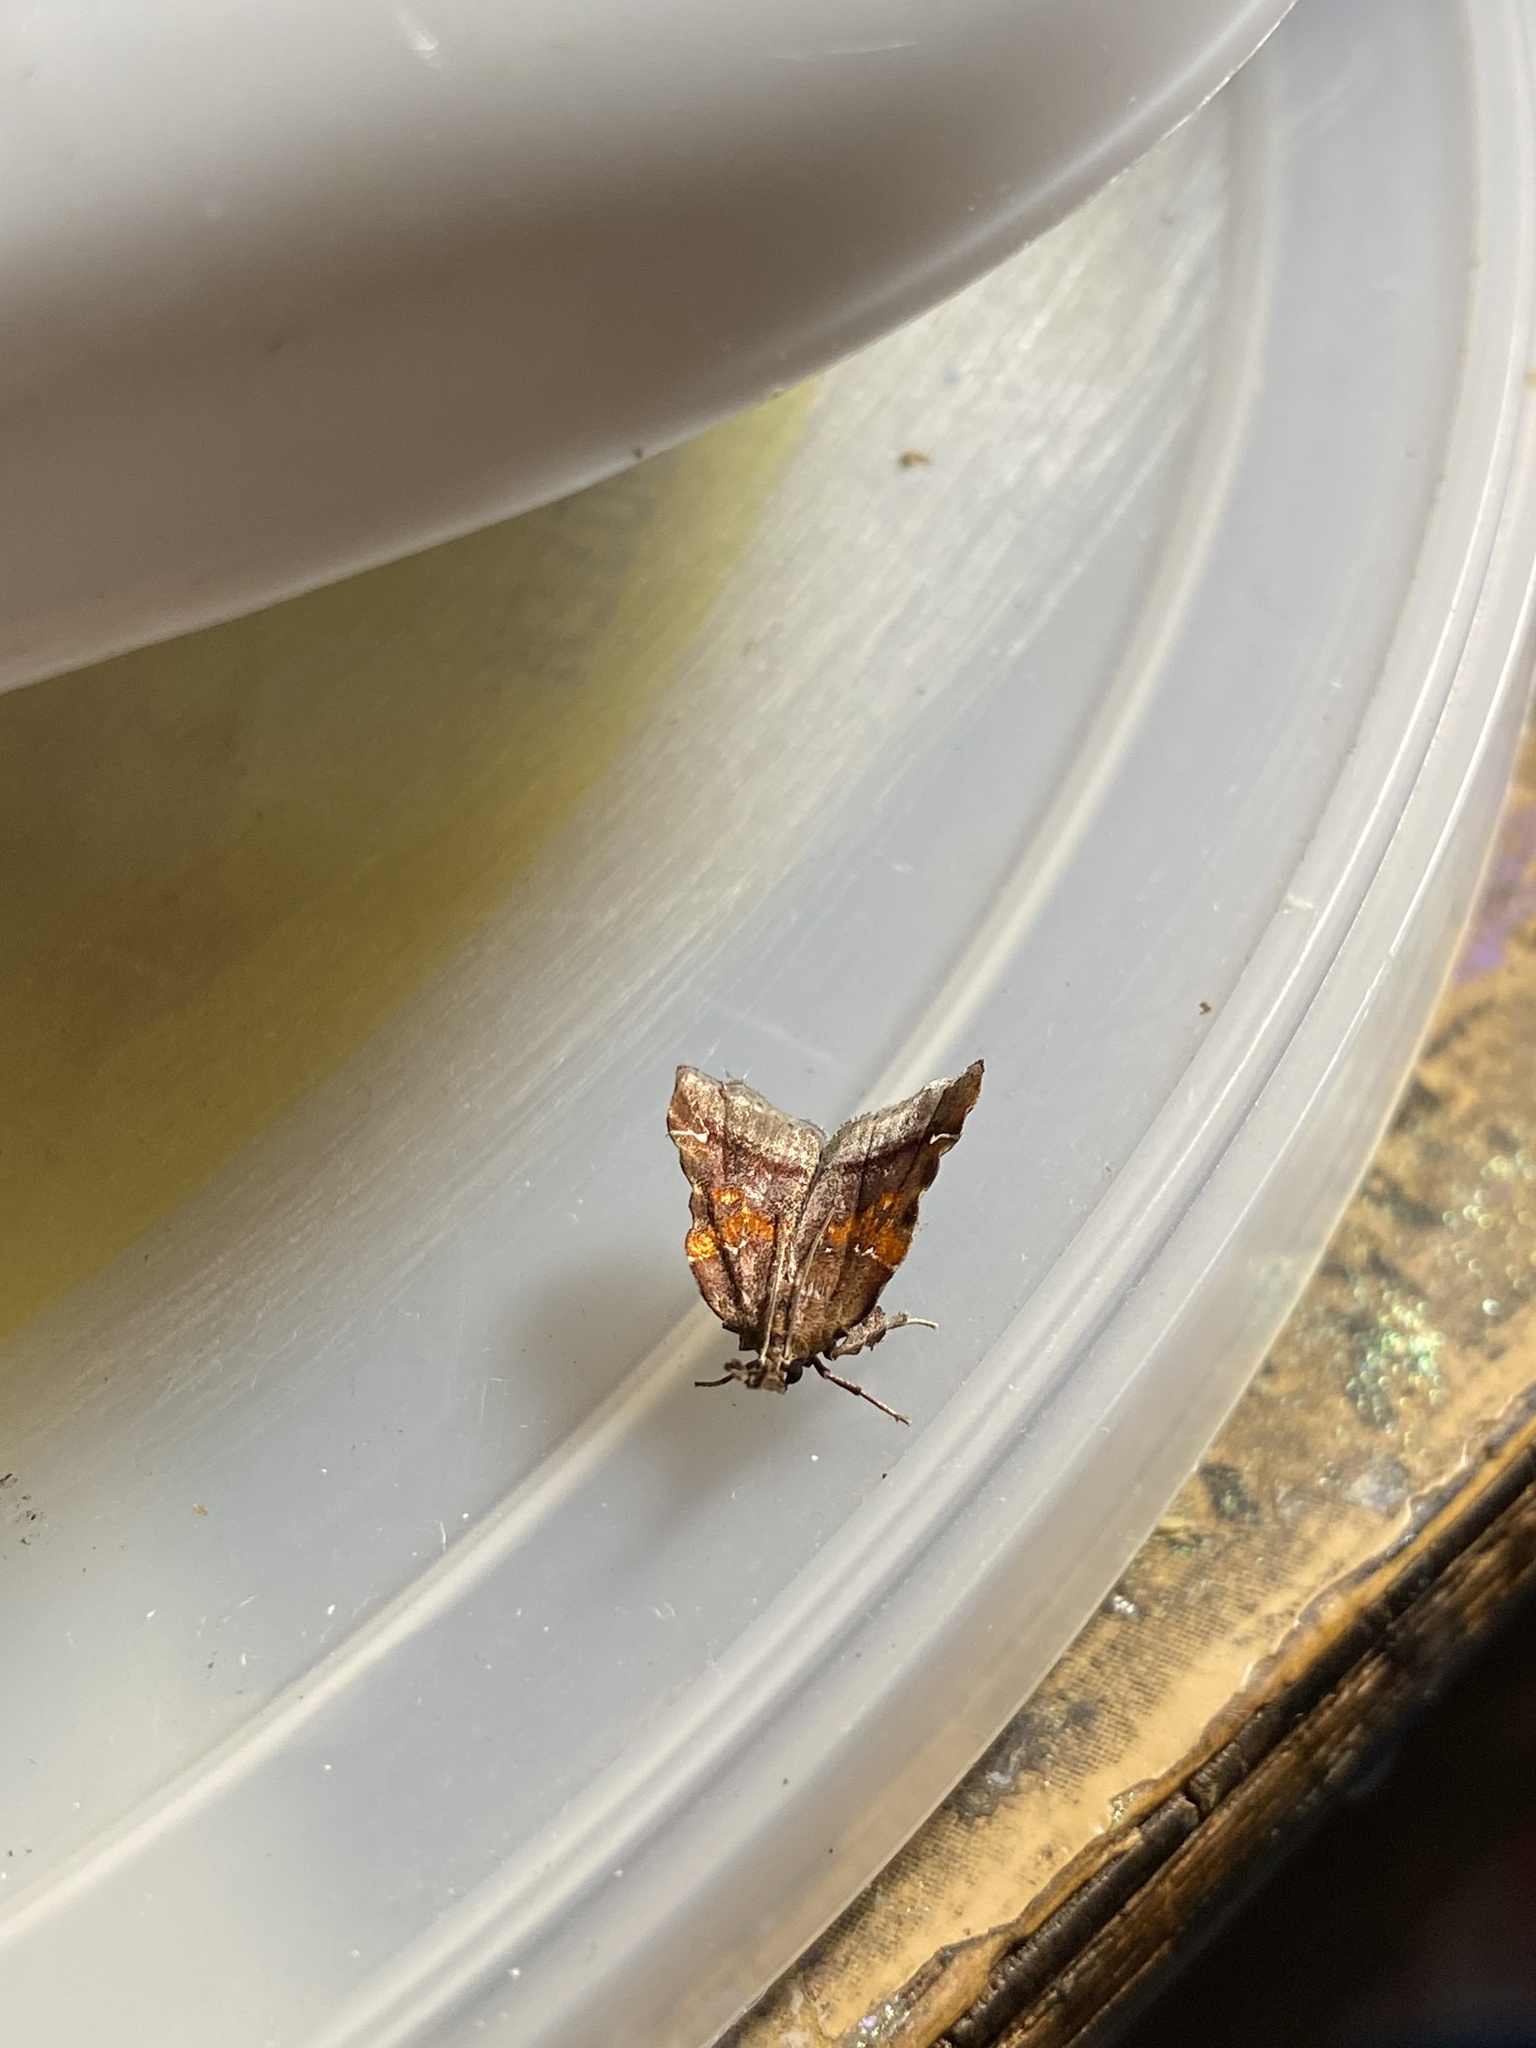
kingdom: Animalia
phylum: Arthropoda
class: Insecta
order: Lepidoptera
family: Pyralidae
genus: Clydonopteron
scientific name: Clydonopteron sacculana
